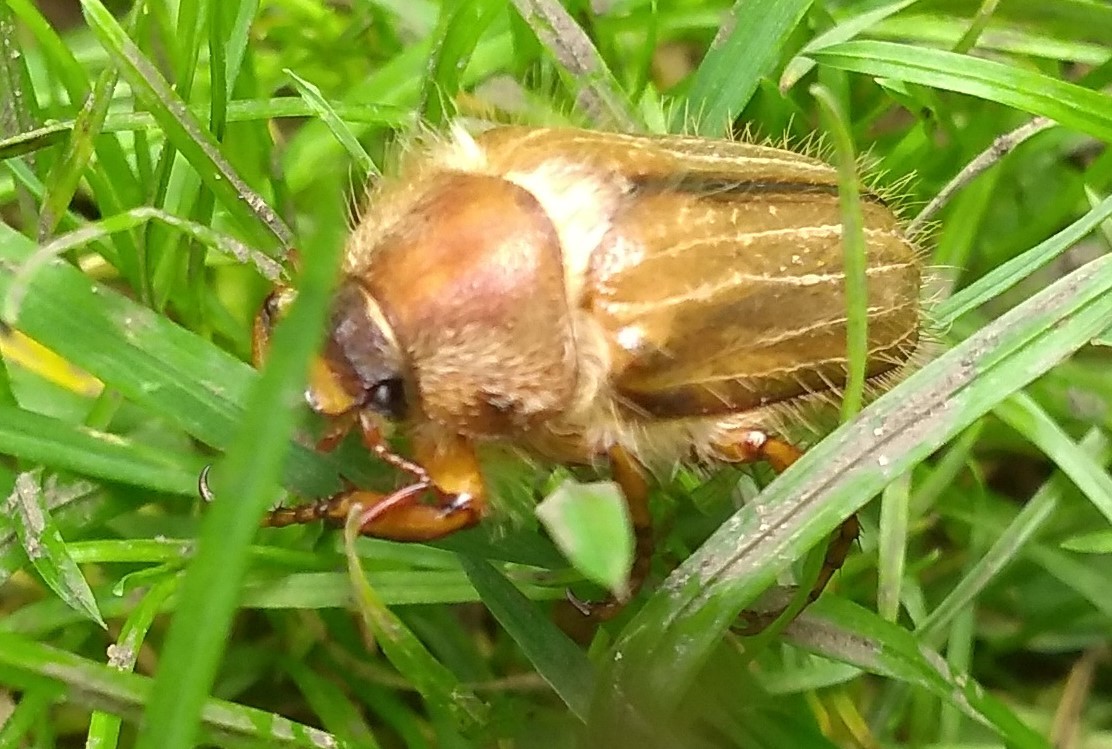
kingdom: Animalia
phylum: Arthropoda
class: Insecta
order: Coleoptera
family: Scarabaeidae
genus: Amphimallon
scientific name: Amphimallon solstitiale
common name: Summer chafer
